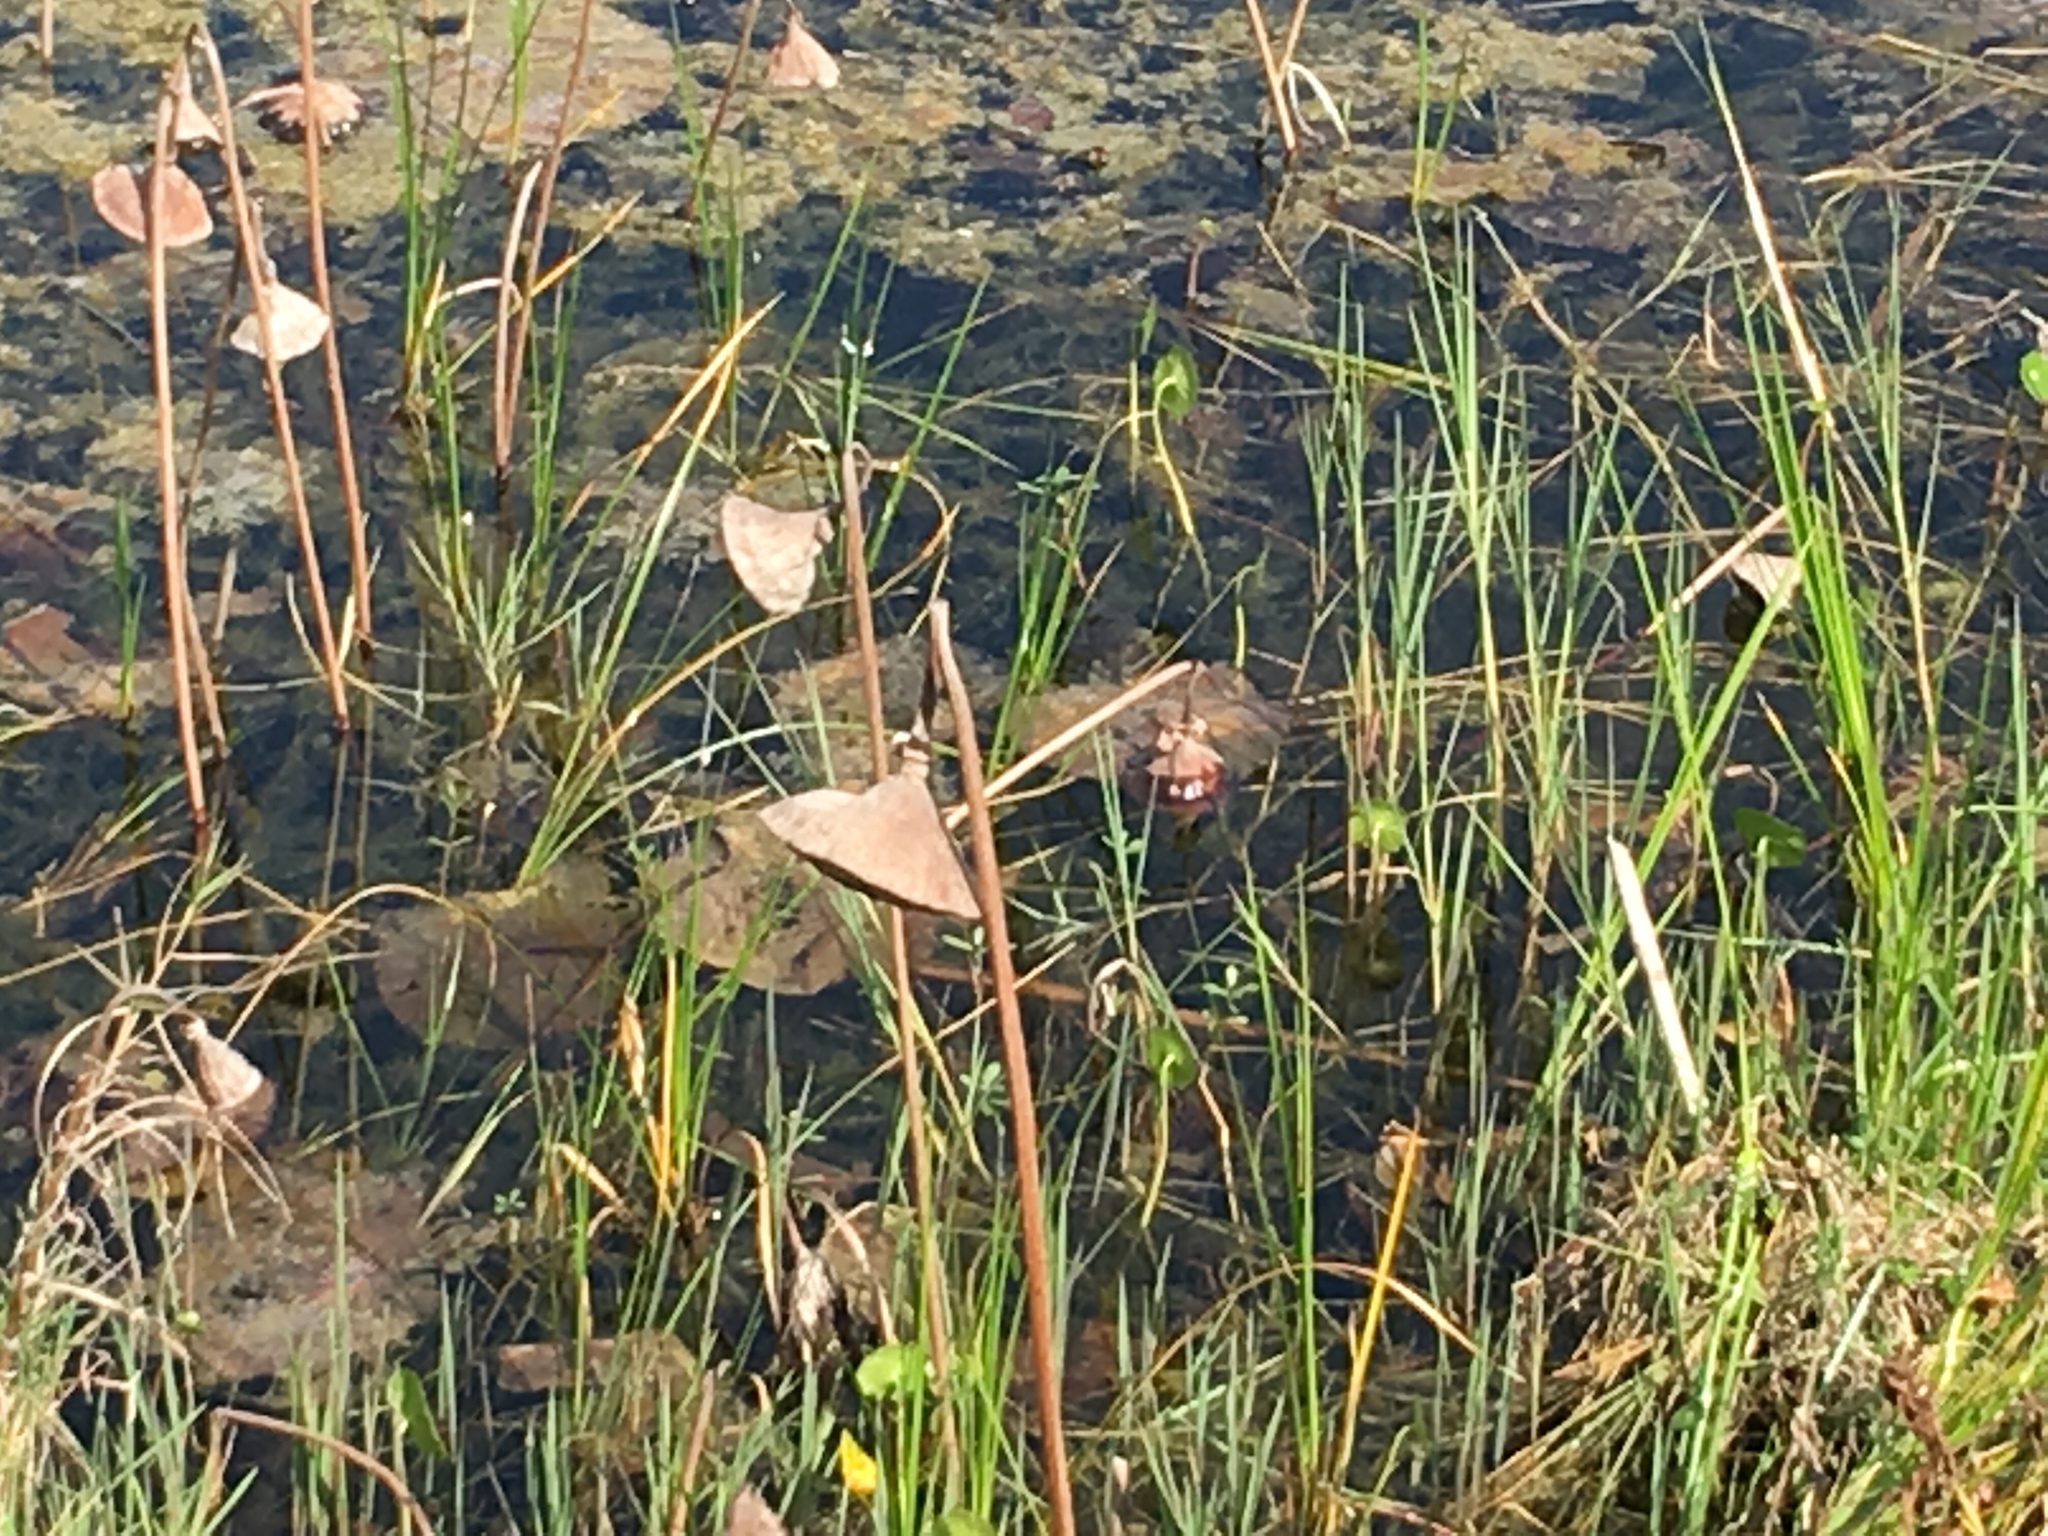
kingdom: Plantae
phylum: Tracheophyta
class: Magnoliopsida
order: Proteales
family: Nelumbonaceae
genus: Nelumbo
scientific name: Nelumbo lutea
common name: American lotus
